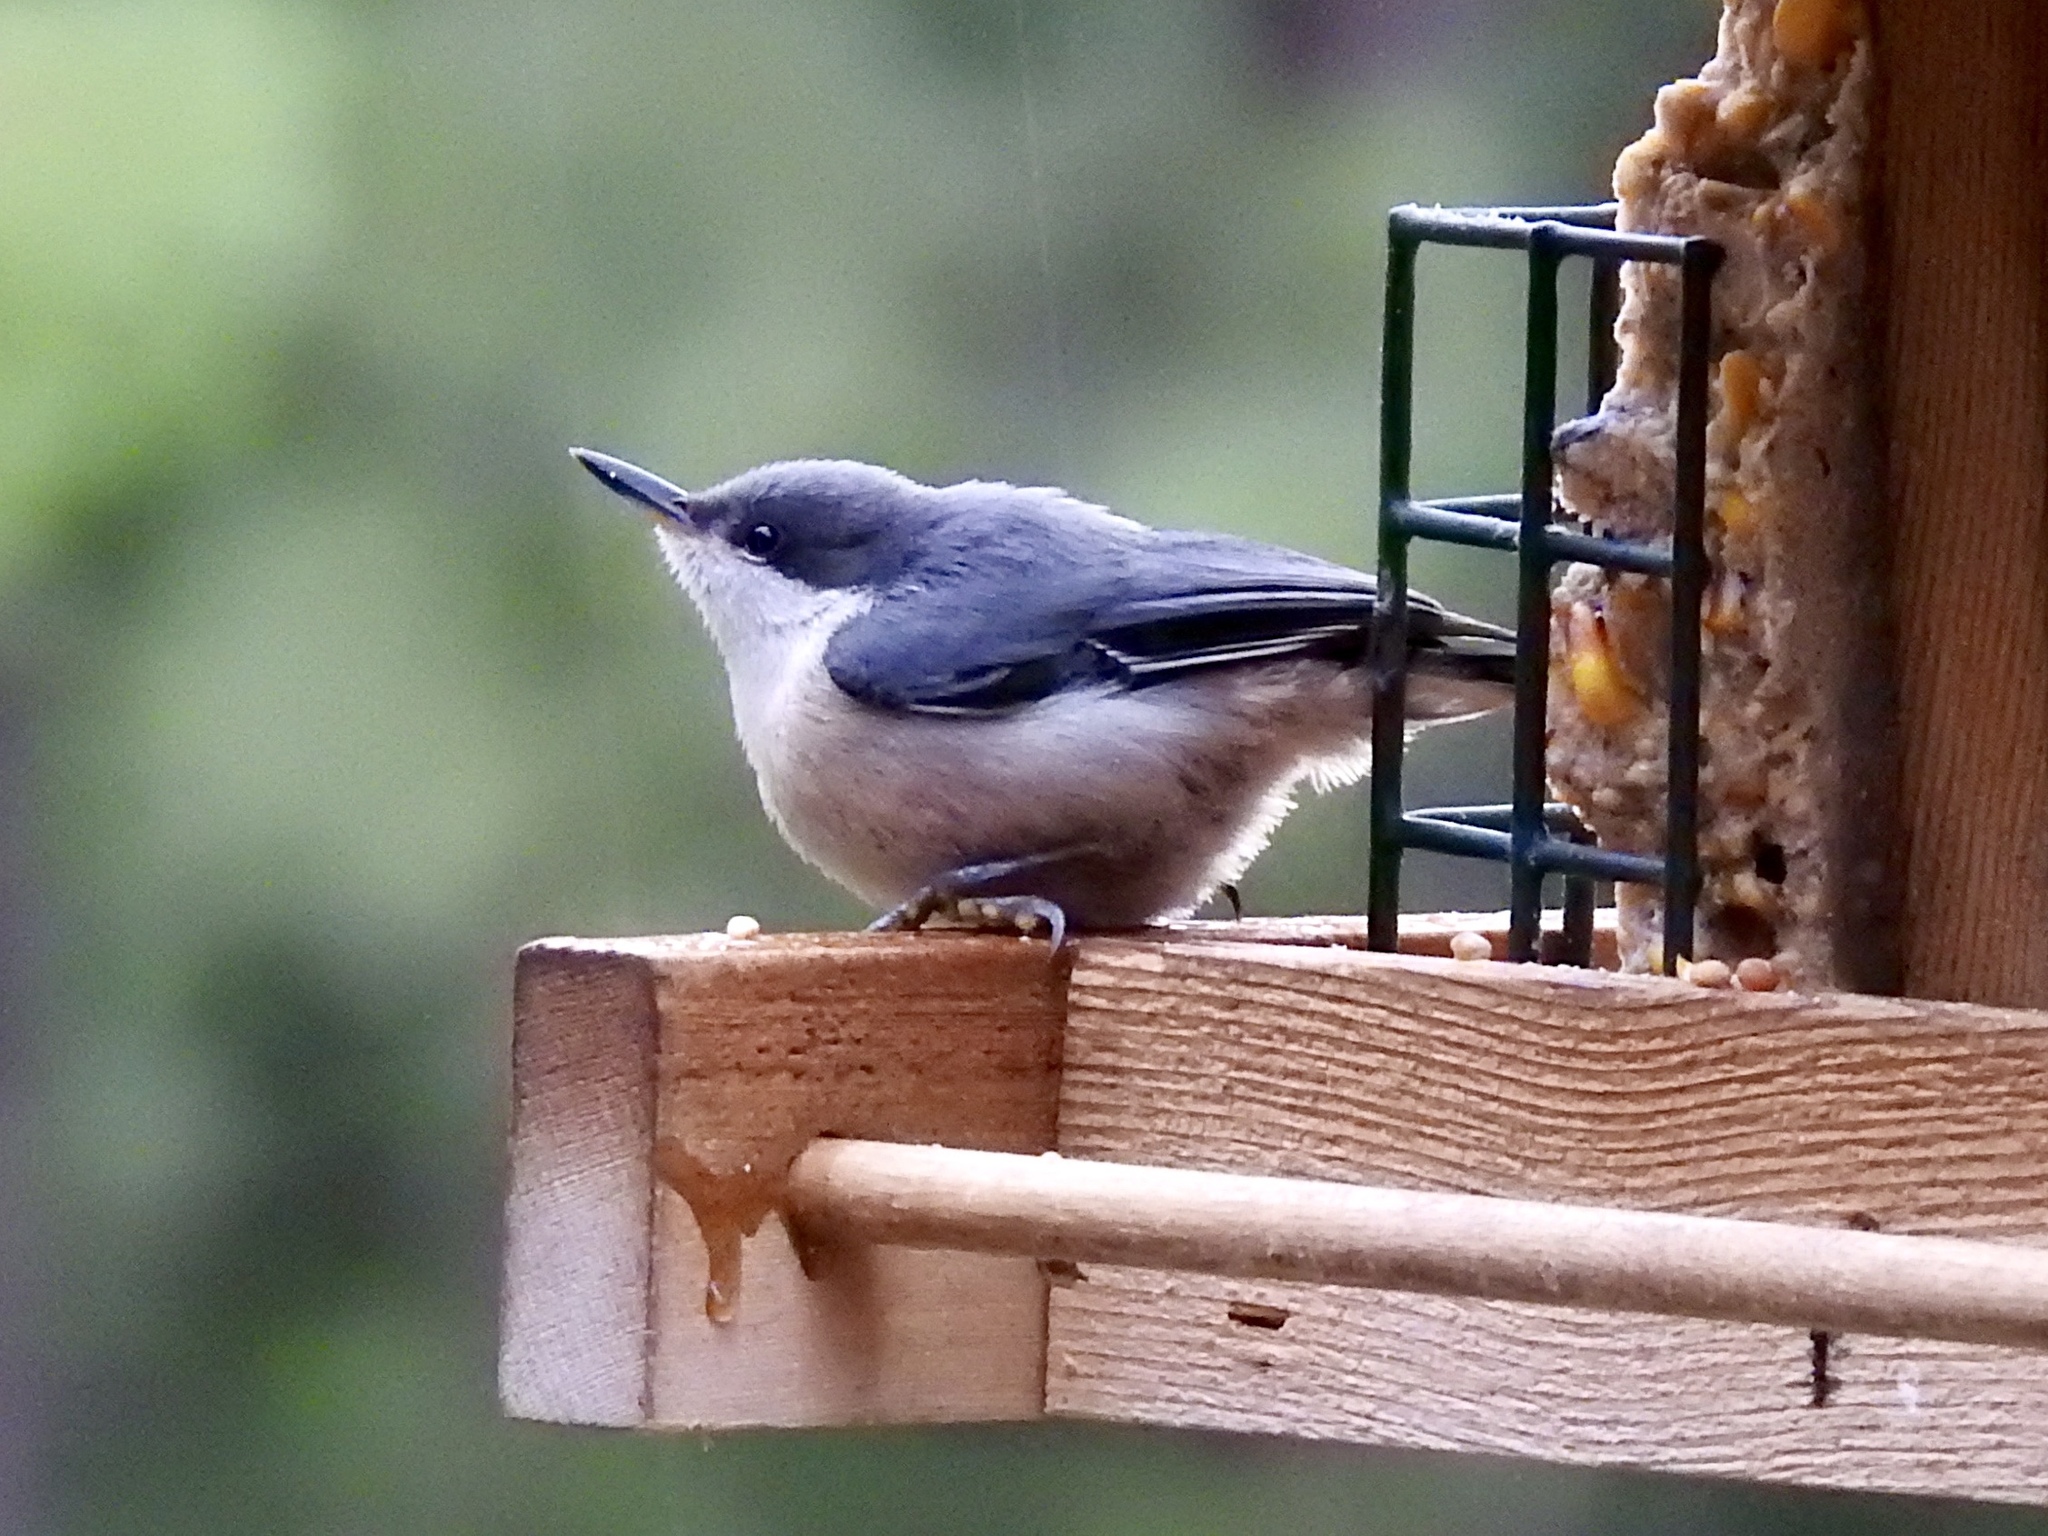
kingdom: Animalia
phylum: Chordata
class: Aves
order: Passeriformes
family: Sittidae
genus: Sitta
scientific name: Sitta pygmaea
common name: Pygmy nuthatch
